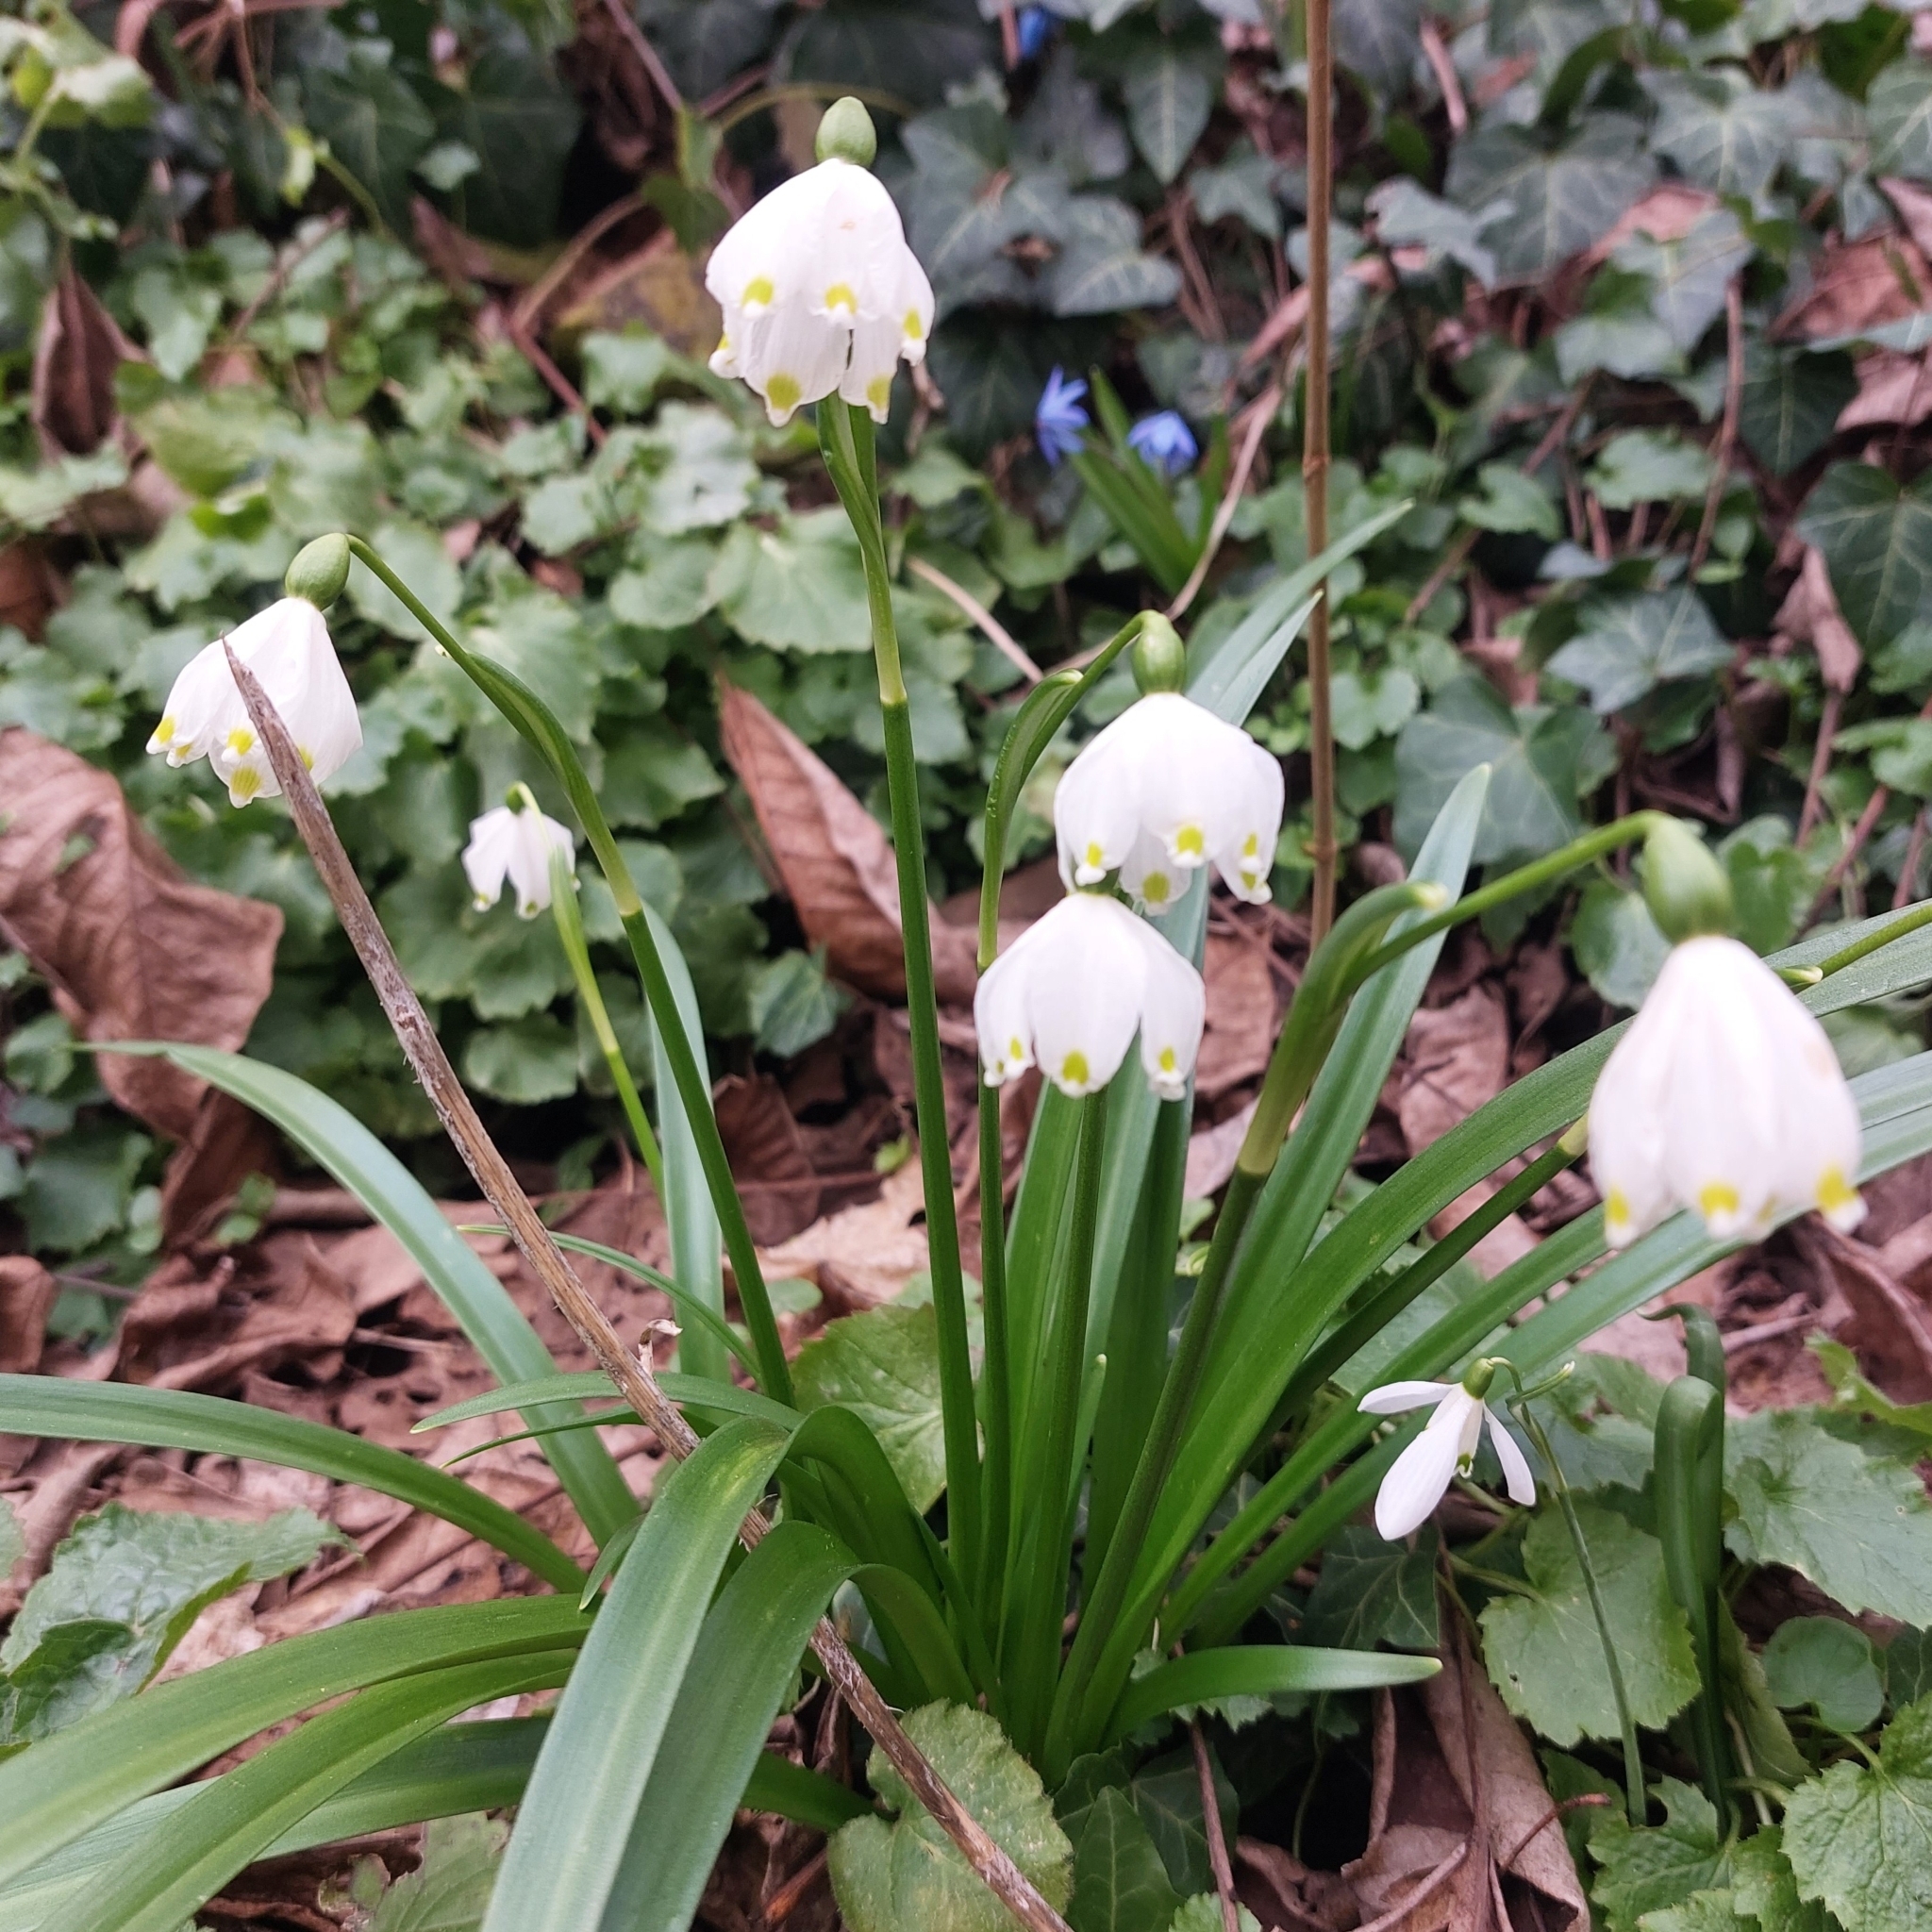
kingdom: Plantae
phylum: Tracheophyta
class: Liliopsida
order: Asparagales
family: Amaryllidaceae
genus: Leucojum
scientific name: Leucojum vernum
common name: Spring snowflake
